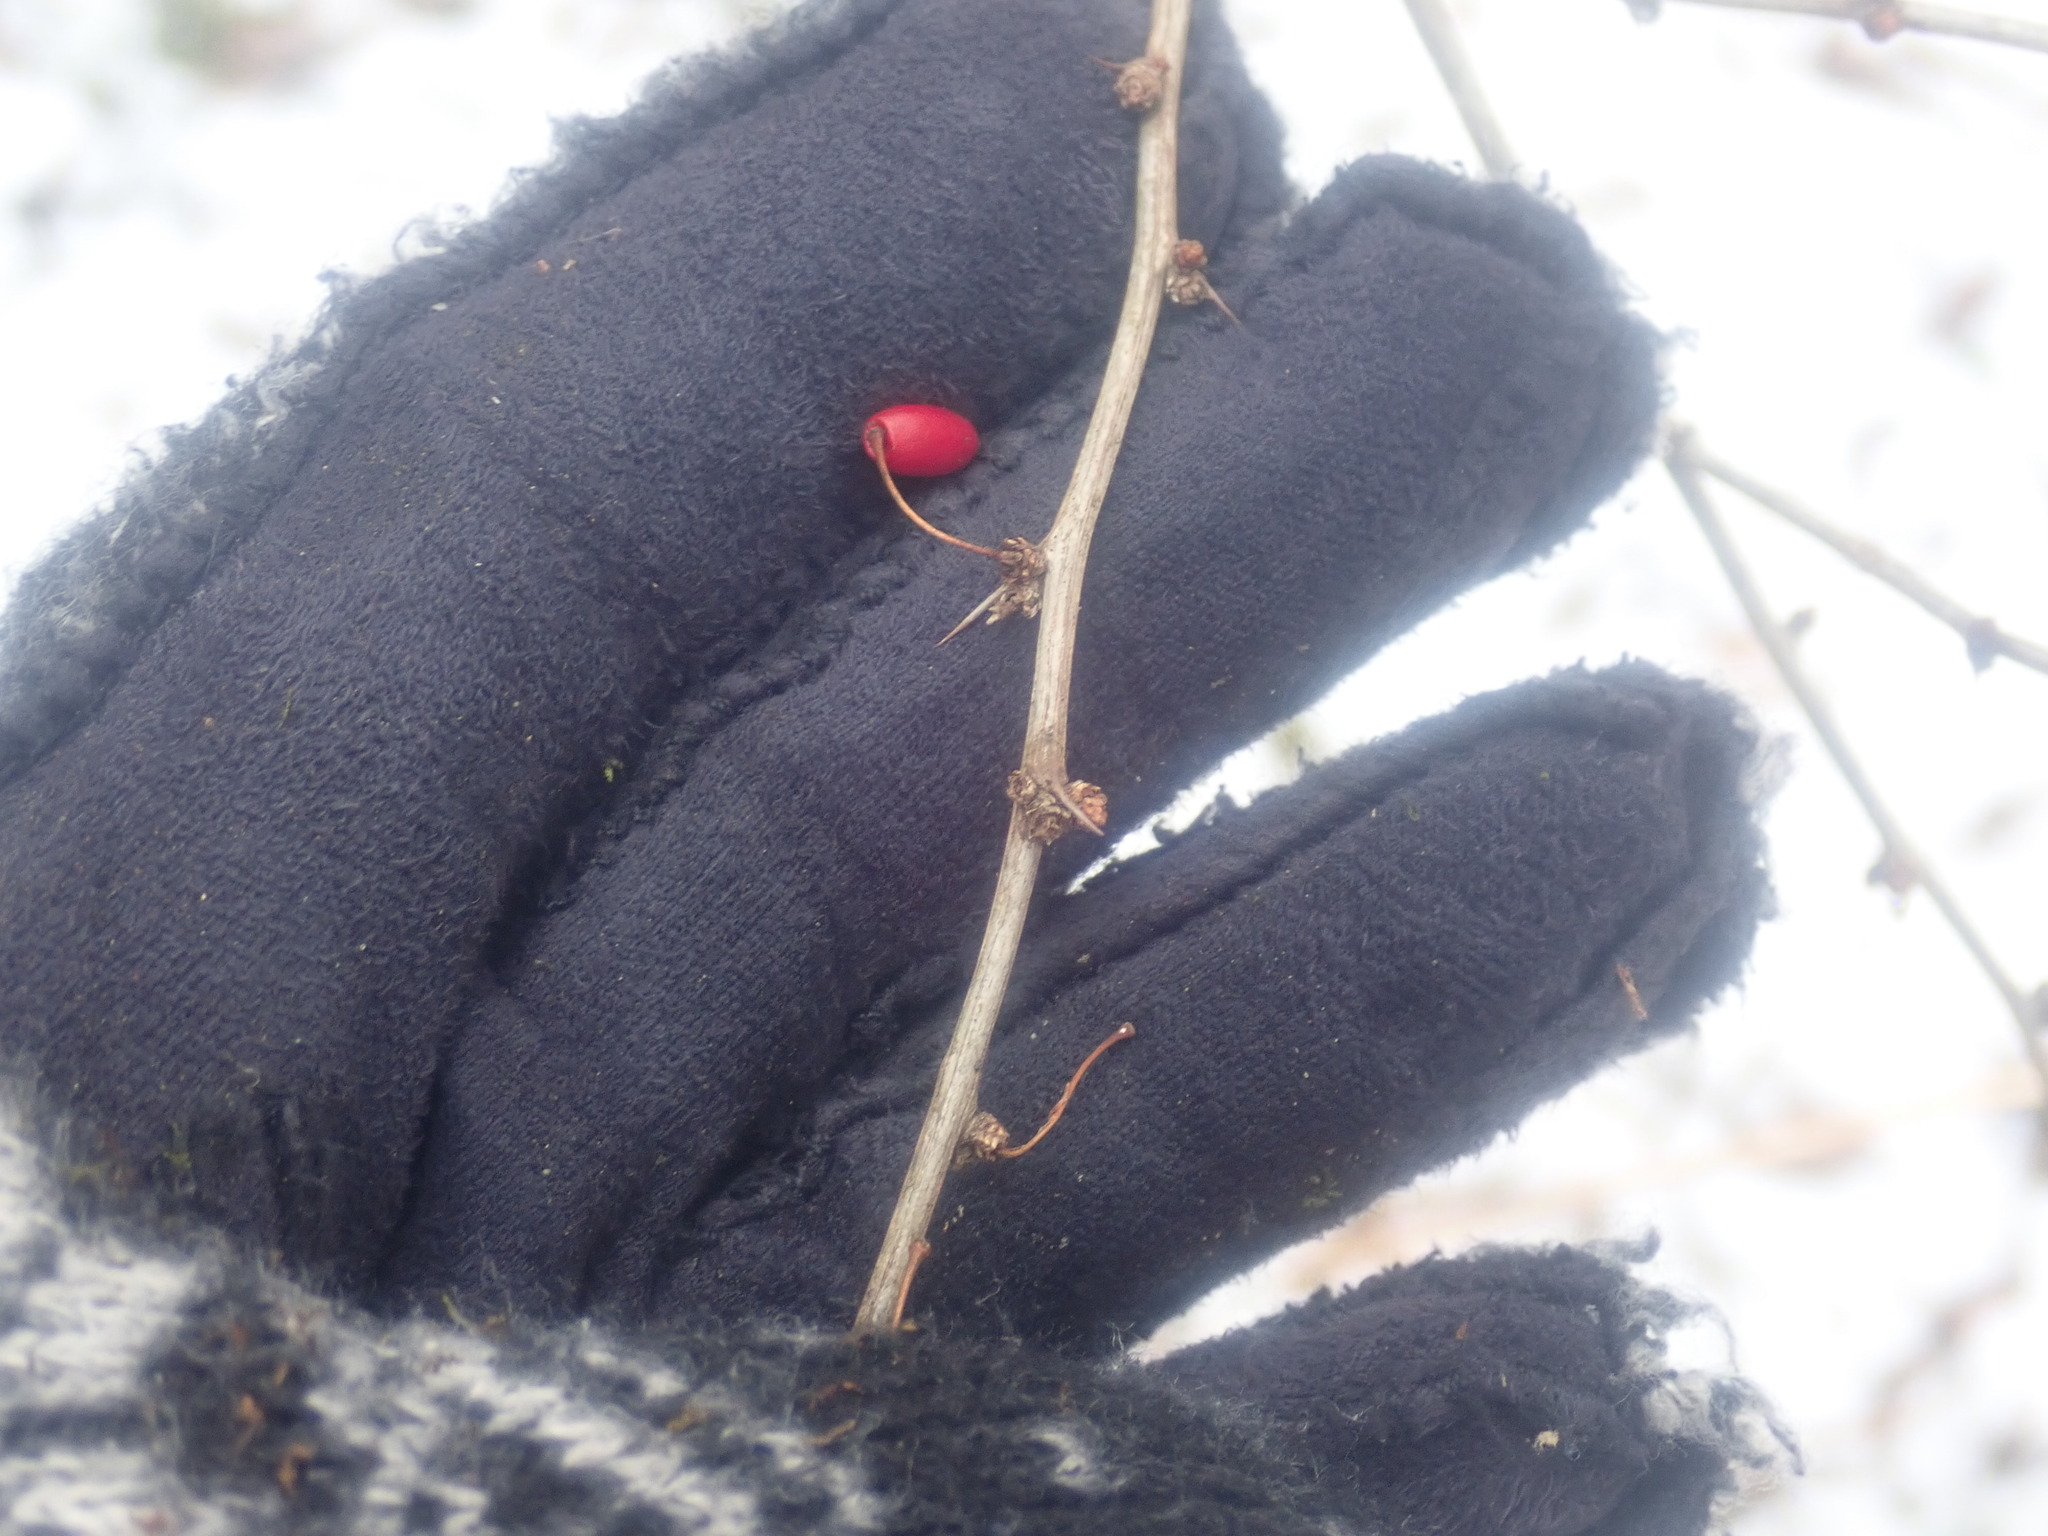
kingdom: Plantae
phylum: Tracheophyta
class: Magnoliopsida
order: Ranunculales
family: Berberidaceae
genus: Berberis
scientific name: Berberis thunbergii
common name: Japanese barberry
